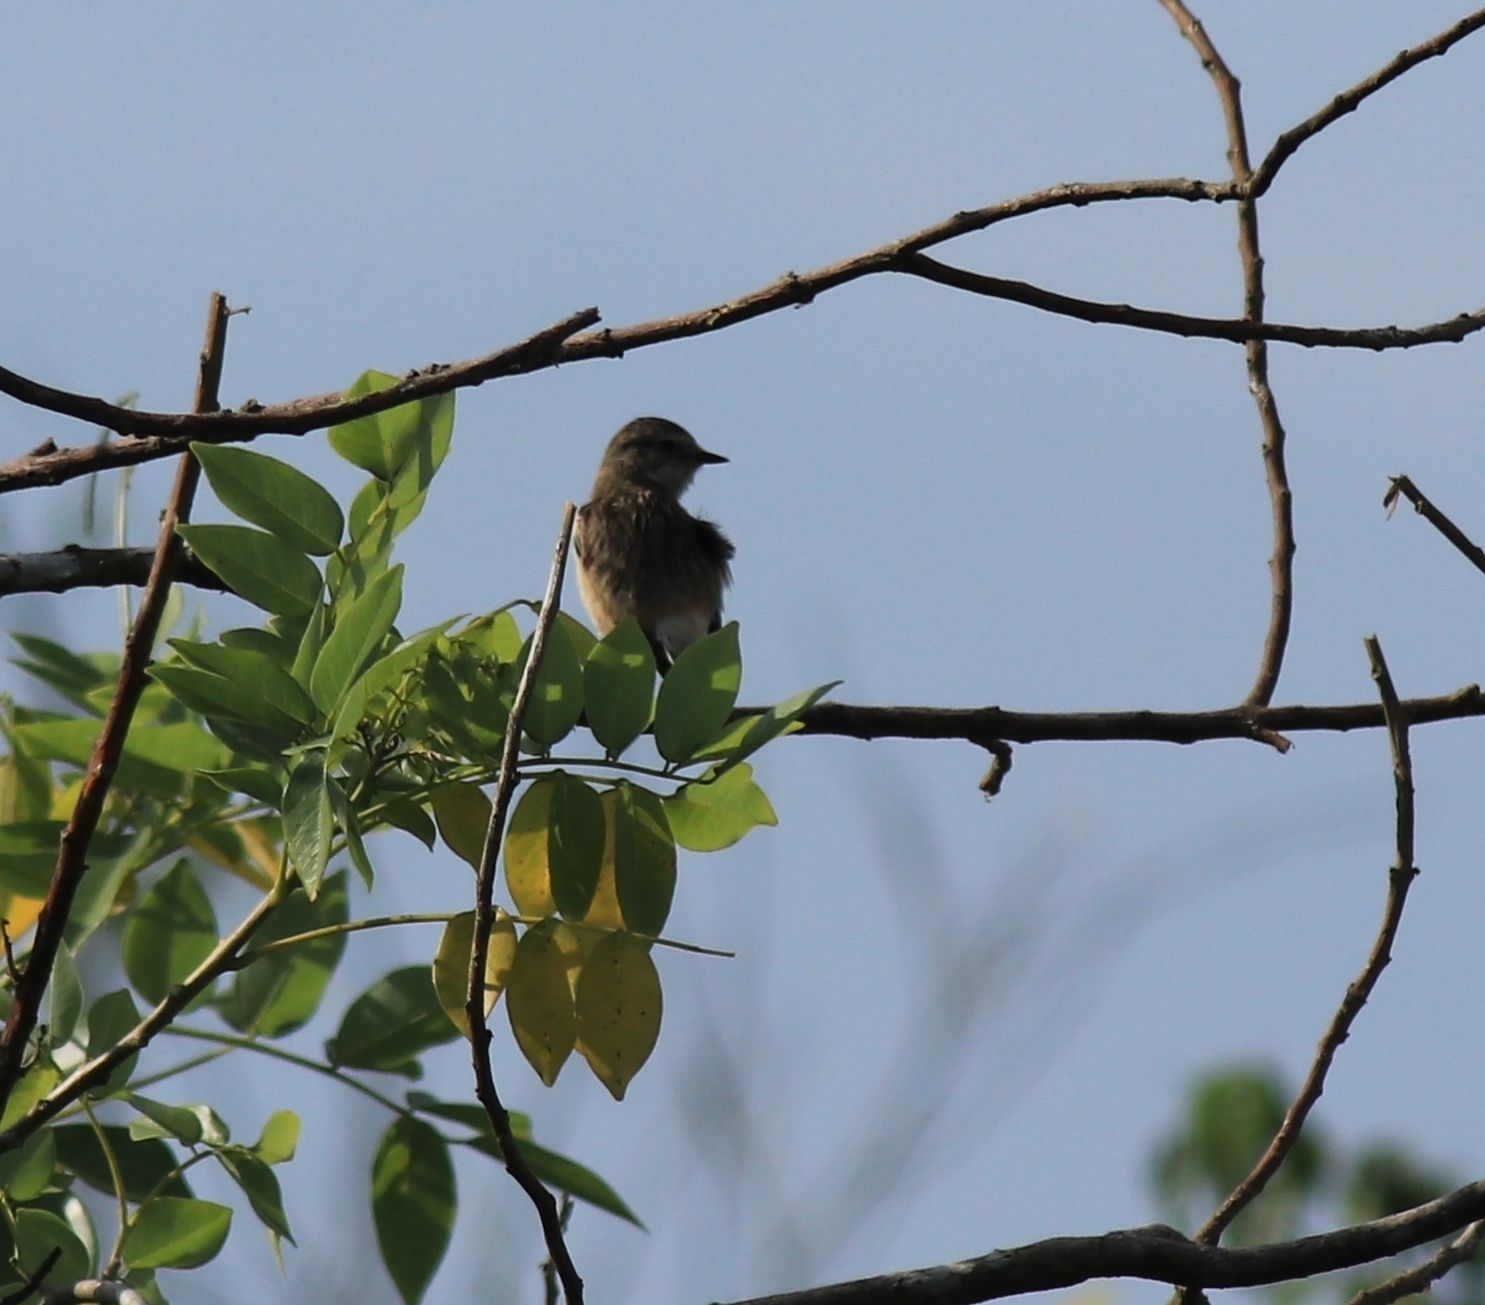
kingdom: Animalia
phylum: Chordata
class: Aves
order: Passeriformes
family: Muscicapidae
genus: Saxicola
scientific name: Saxicola maurus
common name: Siberian stonechat
